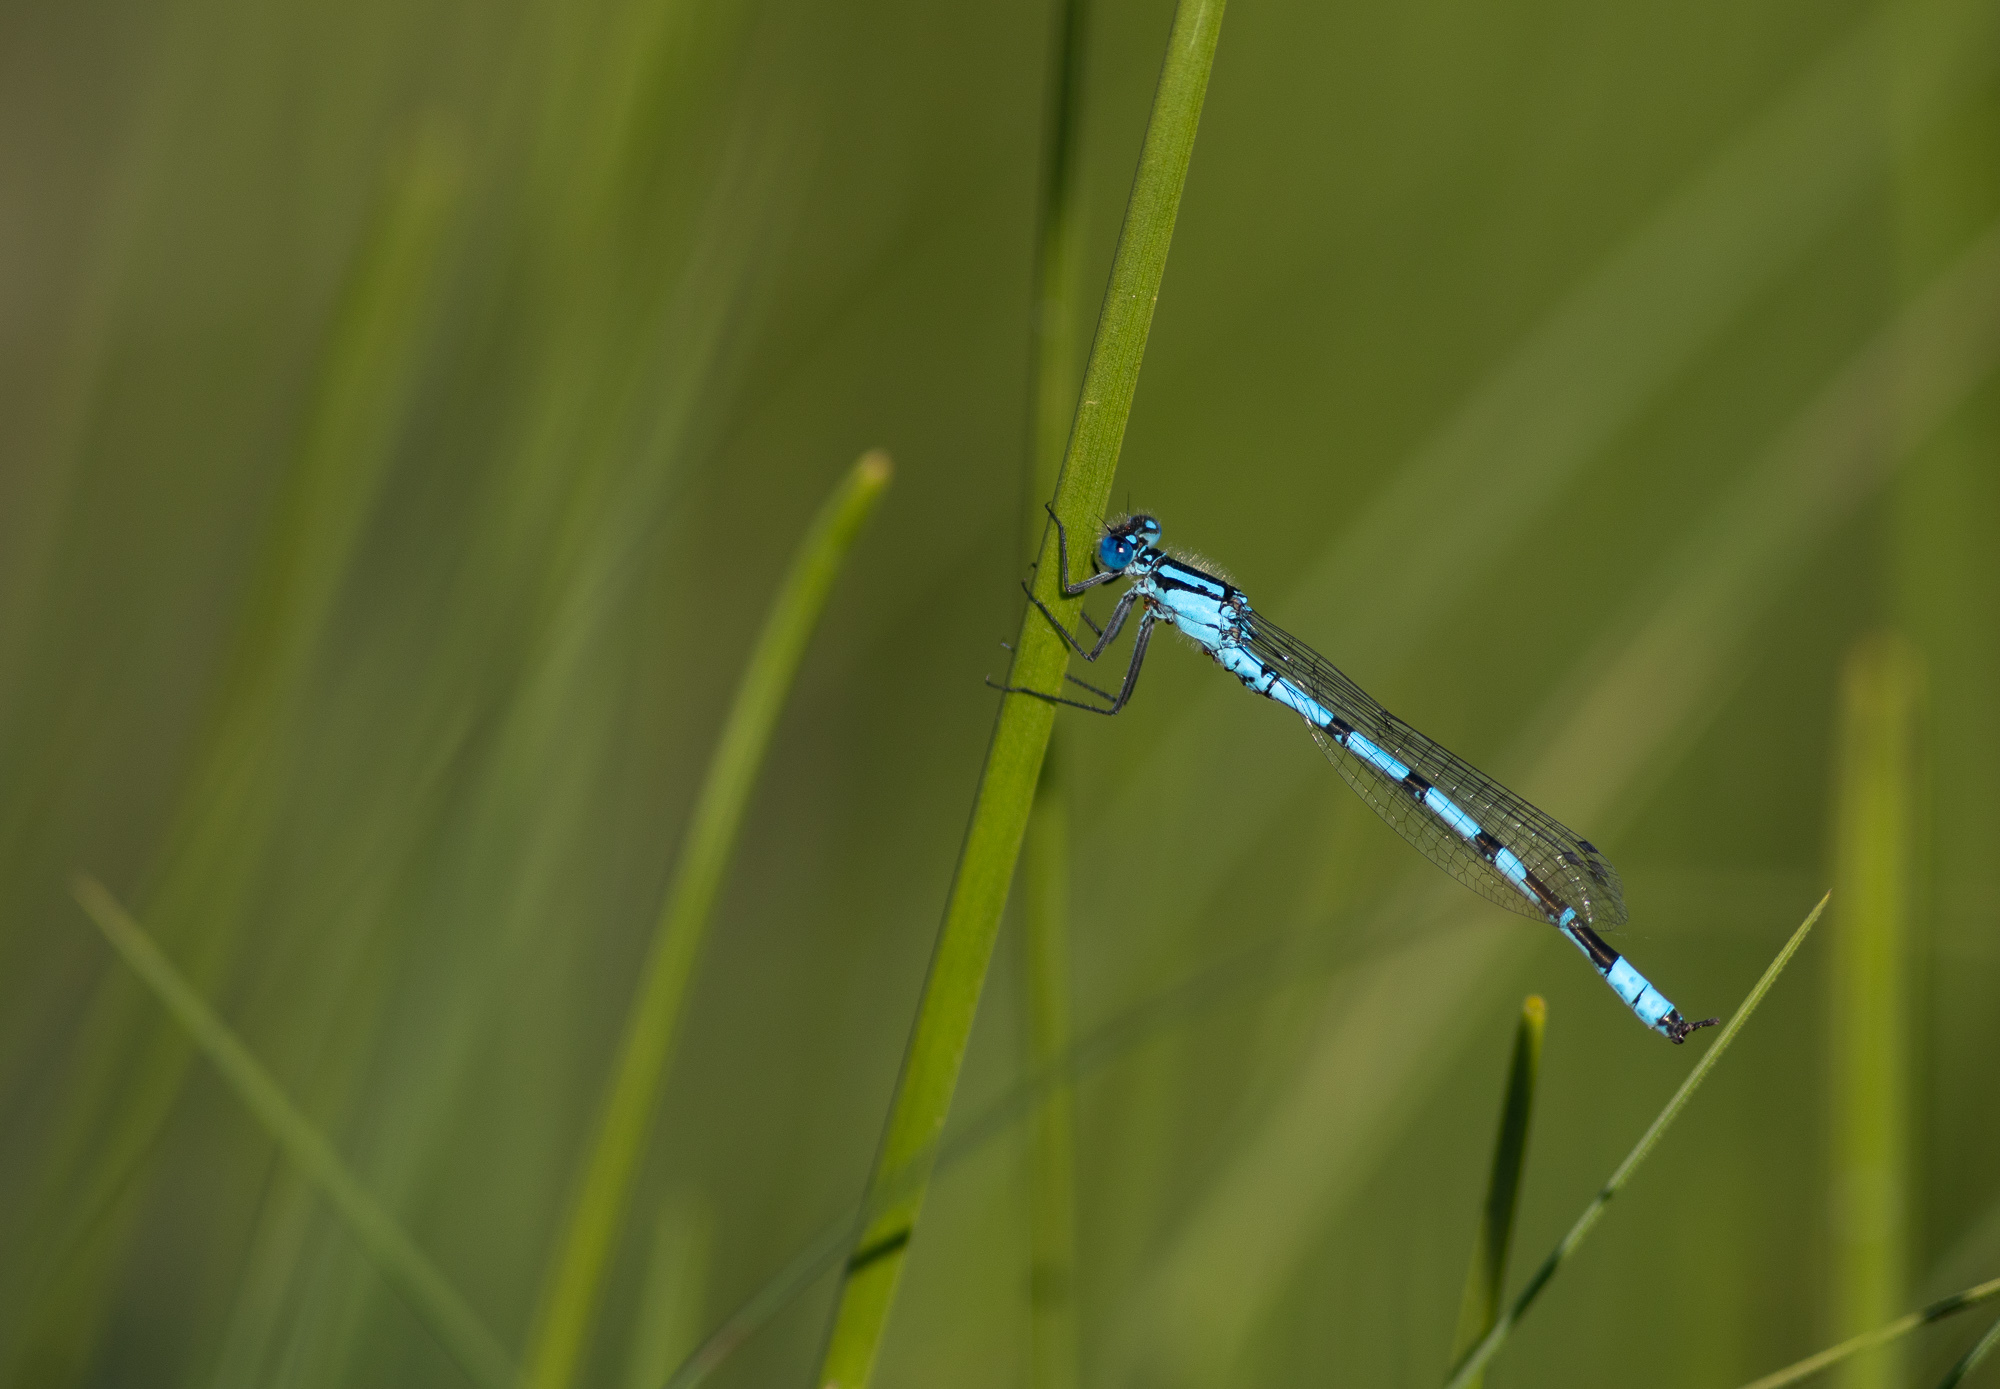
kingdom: Animalia
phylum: Arthropoda
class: Insecta
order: Odonata
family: Coenagrionidae
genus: Enallagma
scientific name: Enallagma cyathigerum
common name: Common blue damselfly
